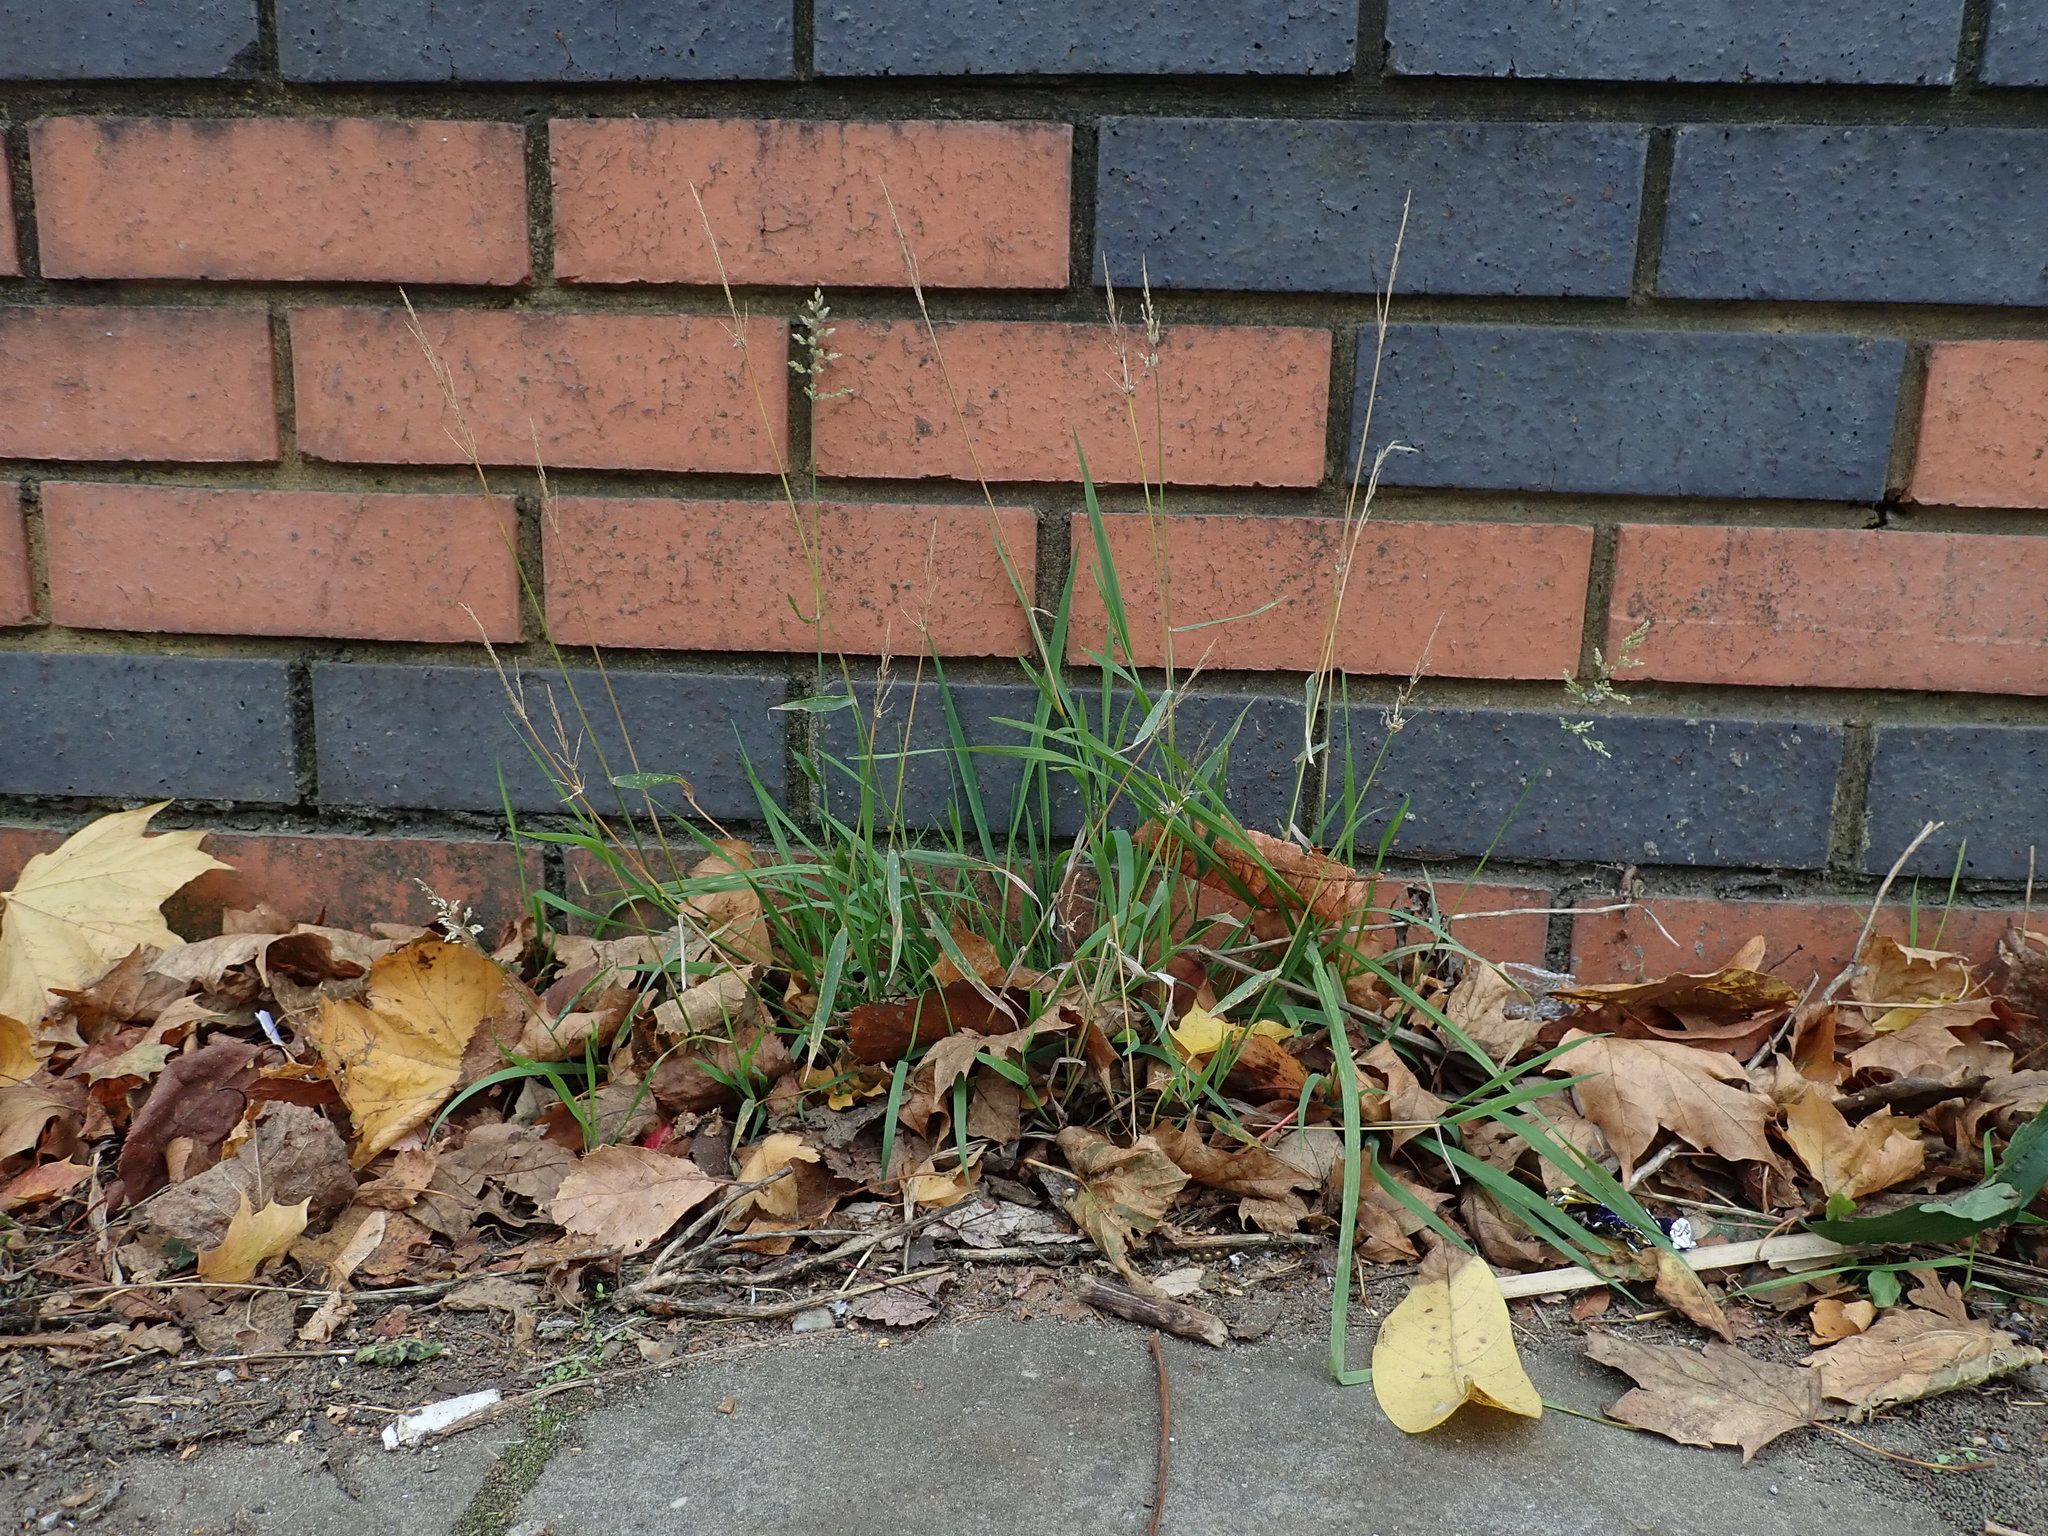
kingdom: Plantae
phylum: Tracheophyta
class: Liliopsida
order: Poales
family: Poaceae
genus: Polypogon
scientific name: Polypogon viridis
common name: Water bent
